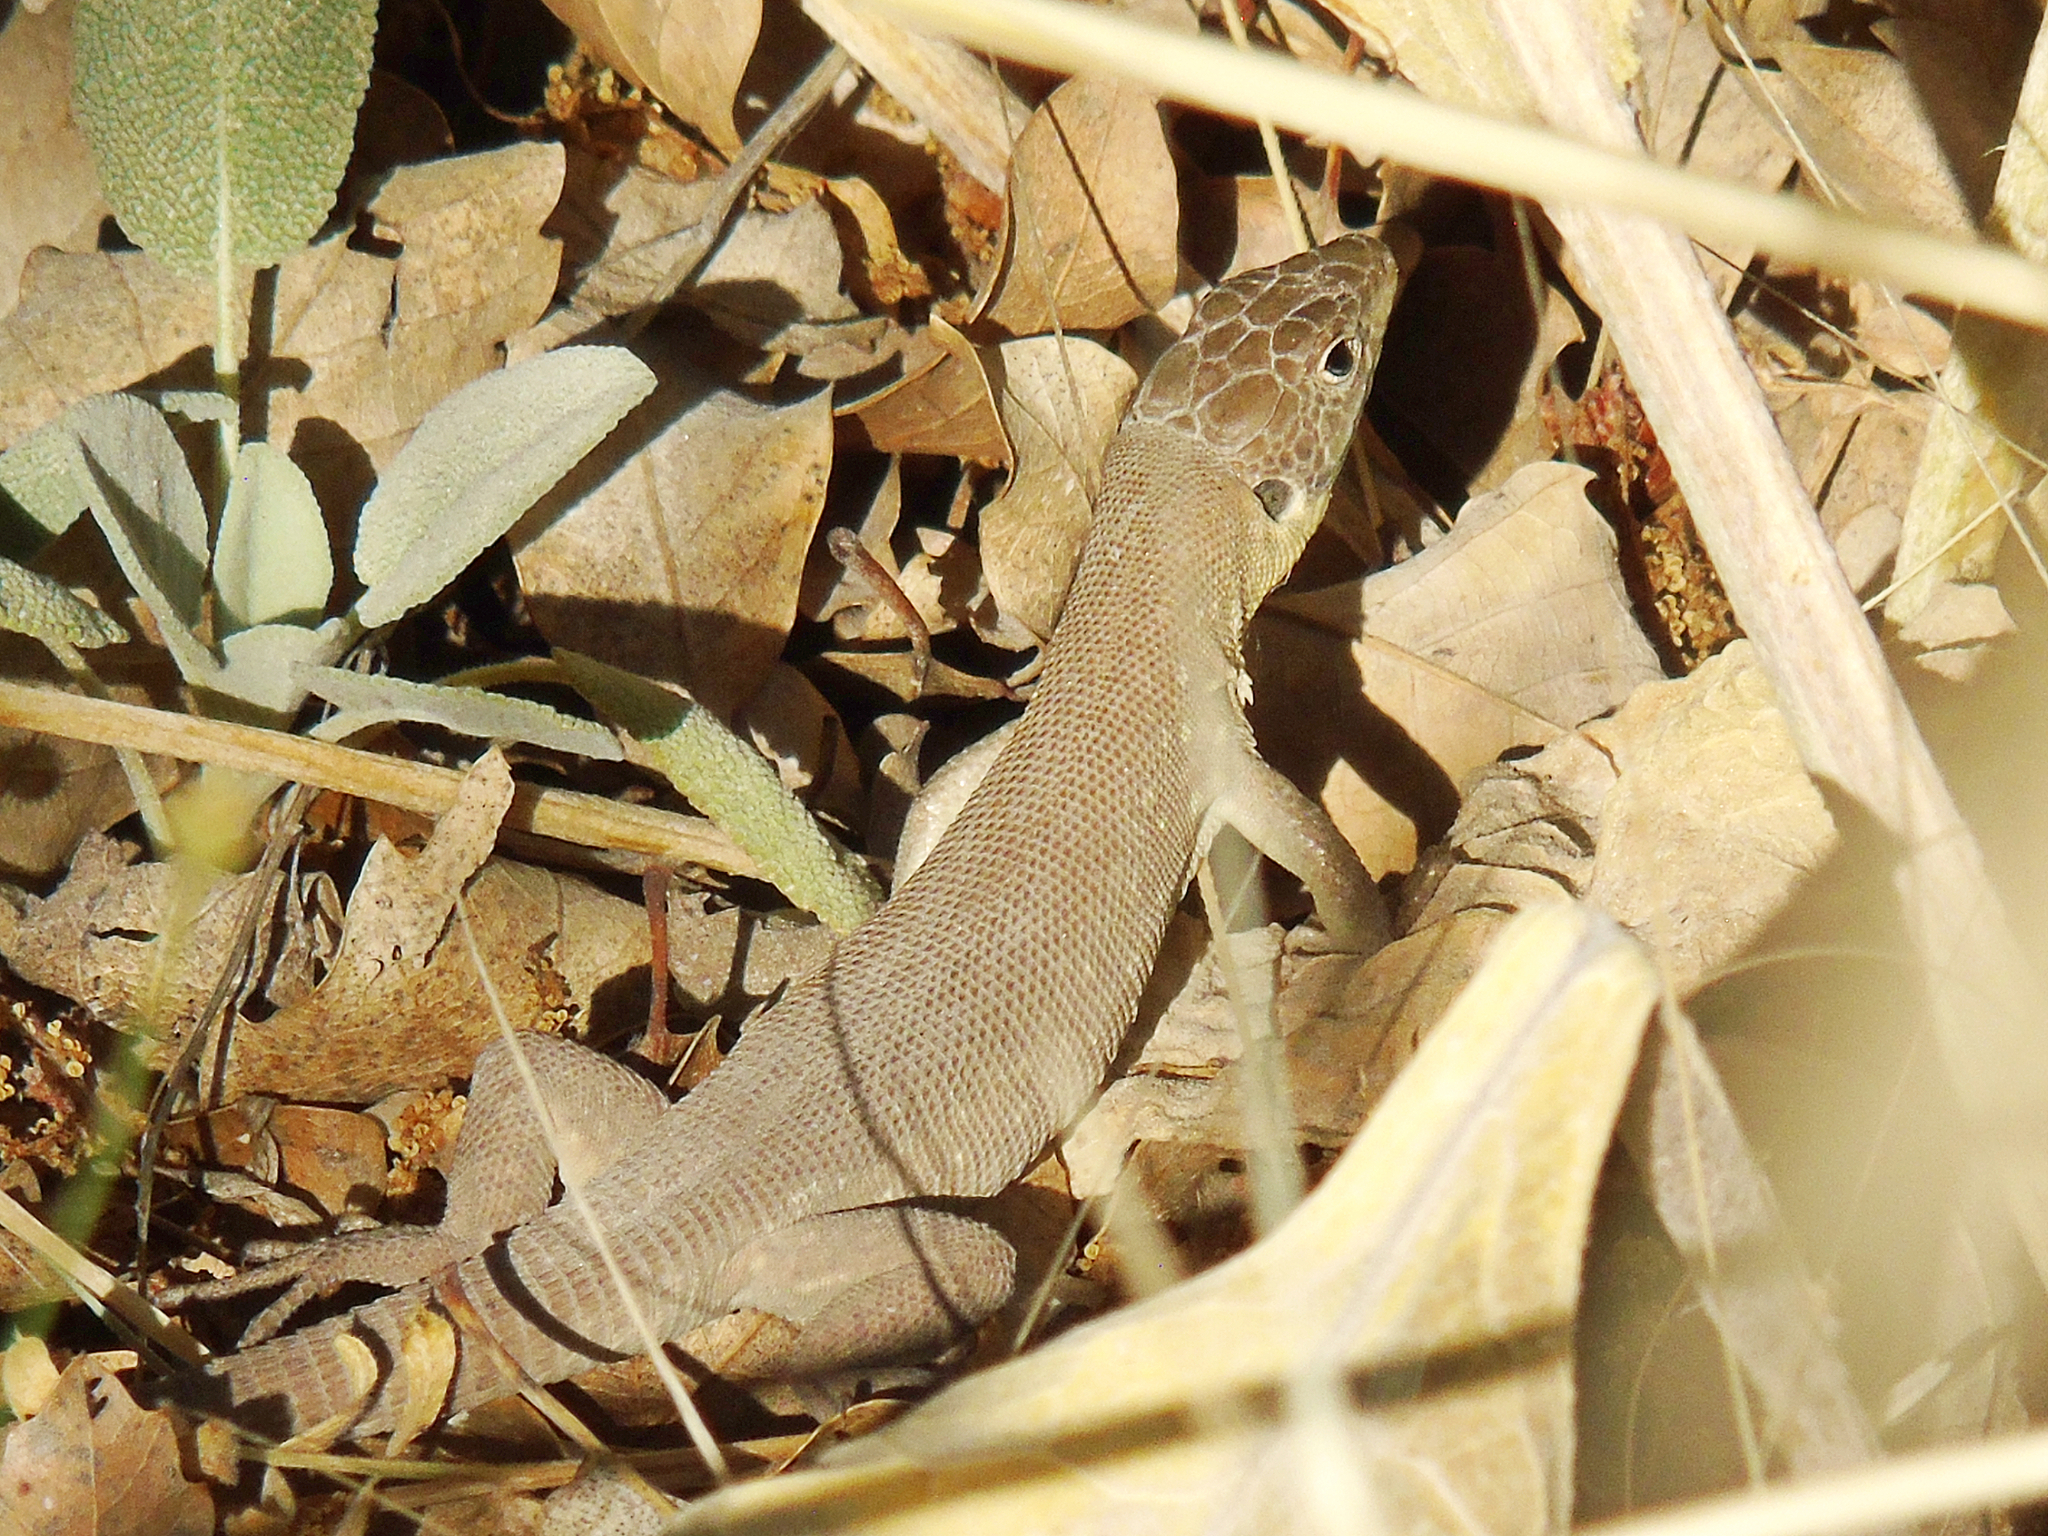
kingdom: Animalia
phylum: Chordata
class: Squamata
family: Lacertidae
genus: Timon
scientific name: Timon kurdistanicus
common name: Kurdistan lizard
